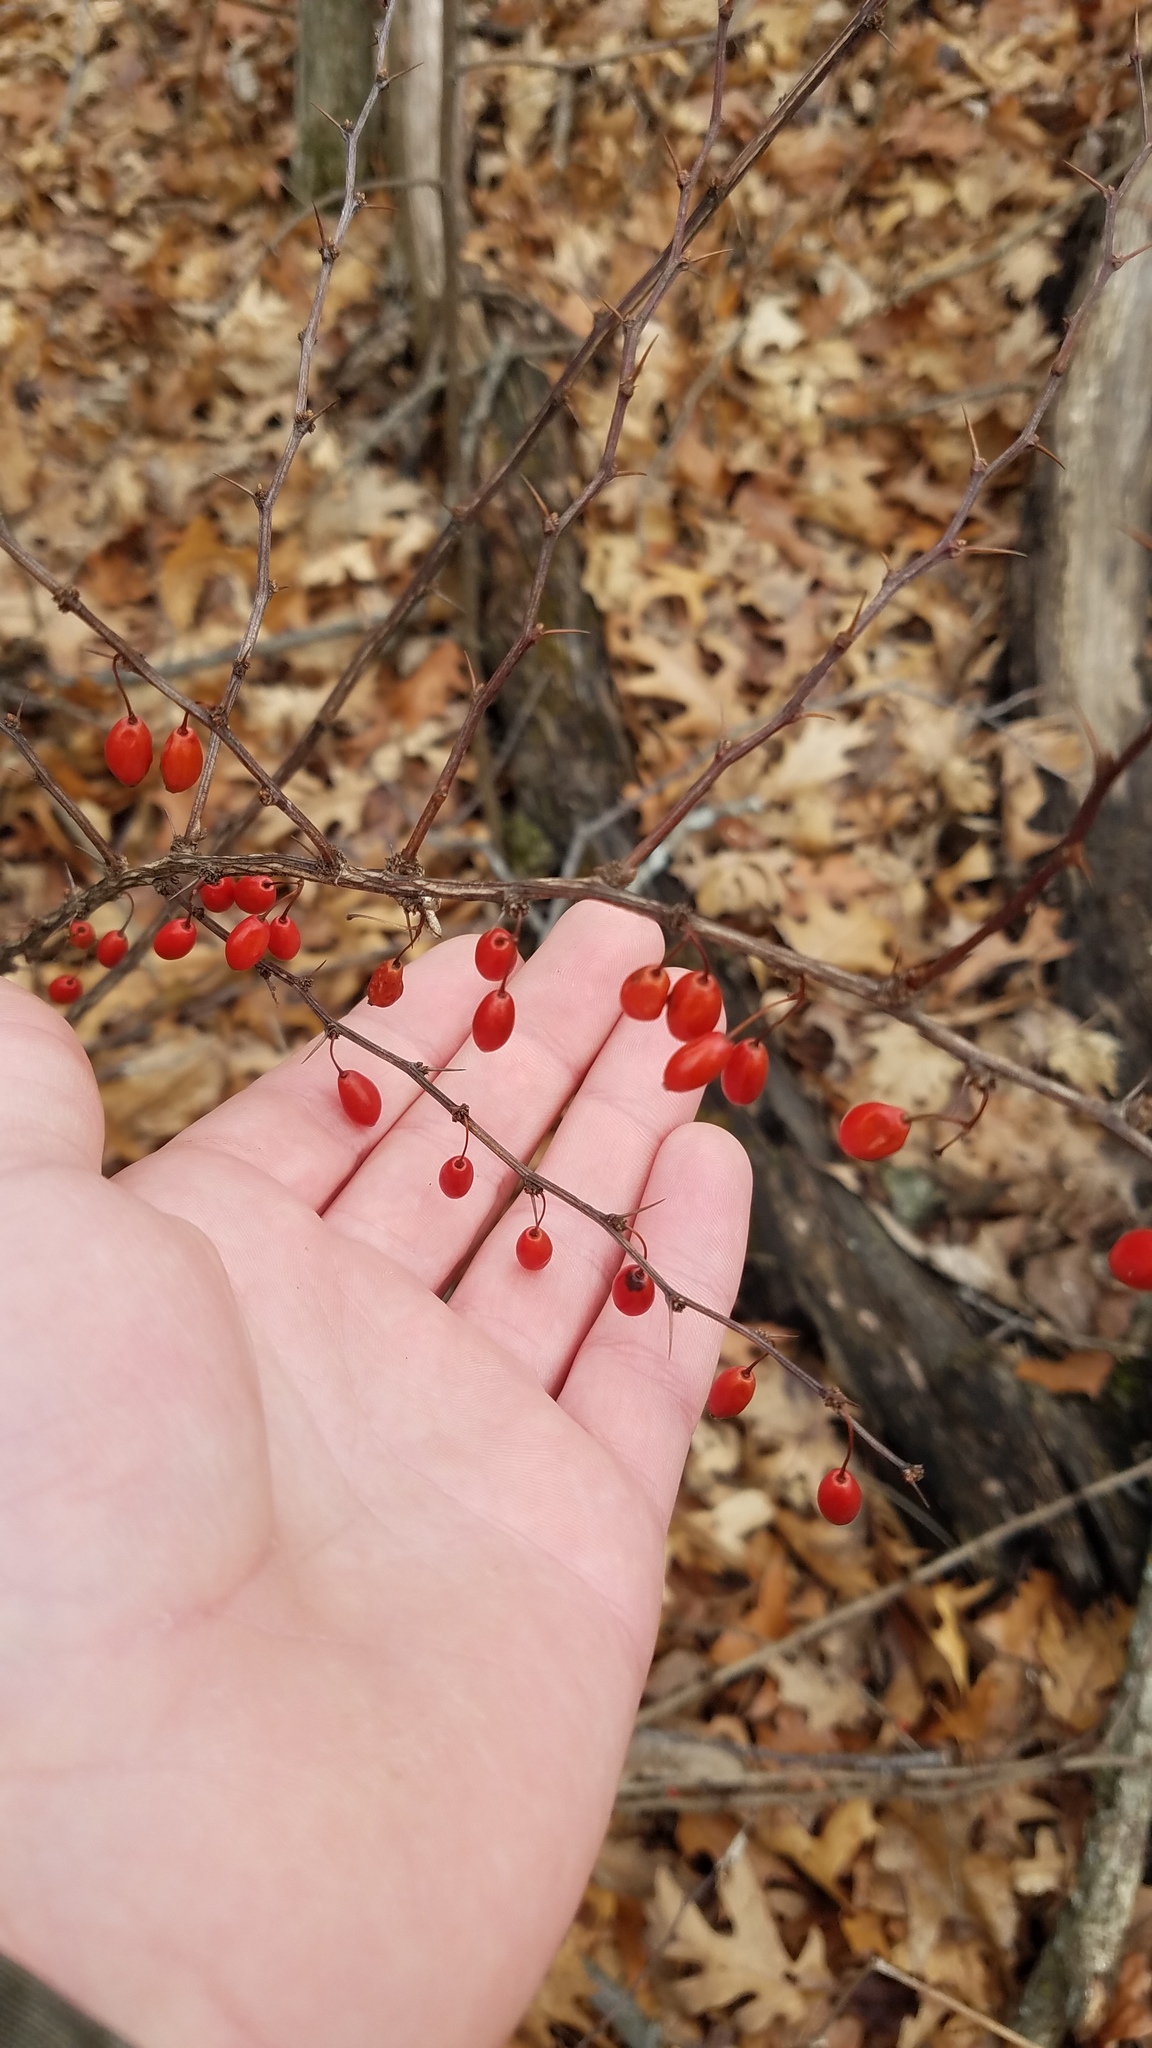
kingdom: Plantae
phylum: Tracheophyta
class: Magnoliopsida
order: Ranunculales
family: Berberidaceae
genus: Berberis
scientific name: Berberis thunbergii
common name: Japanese barberry
